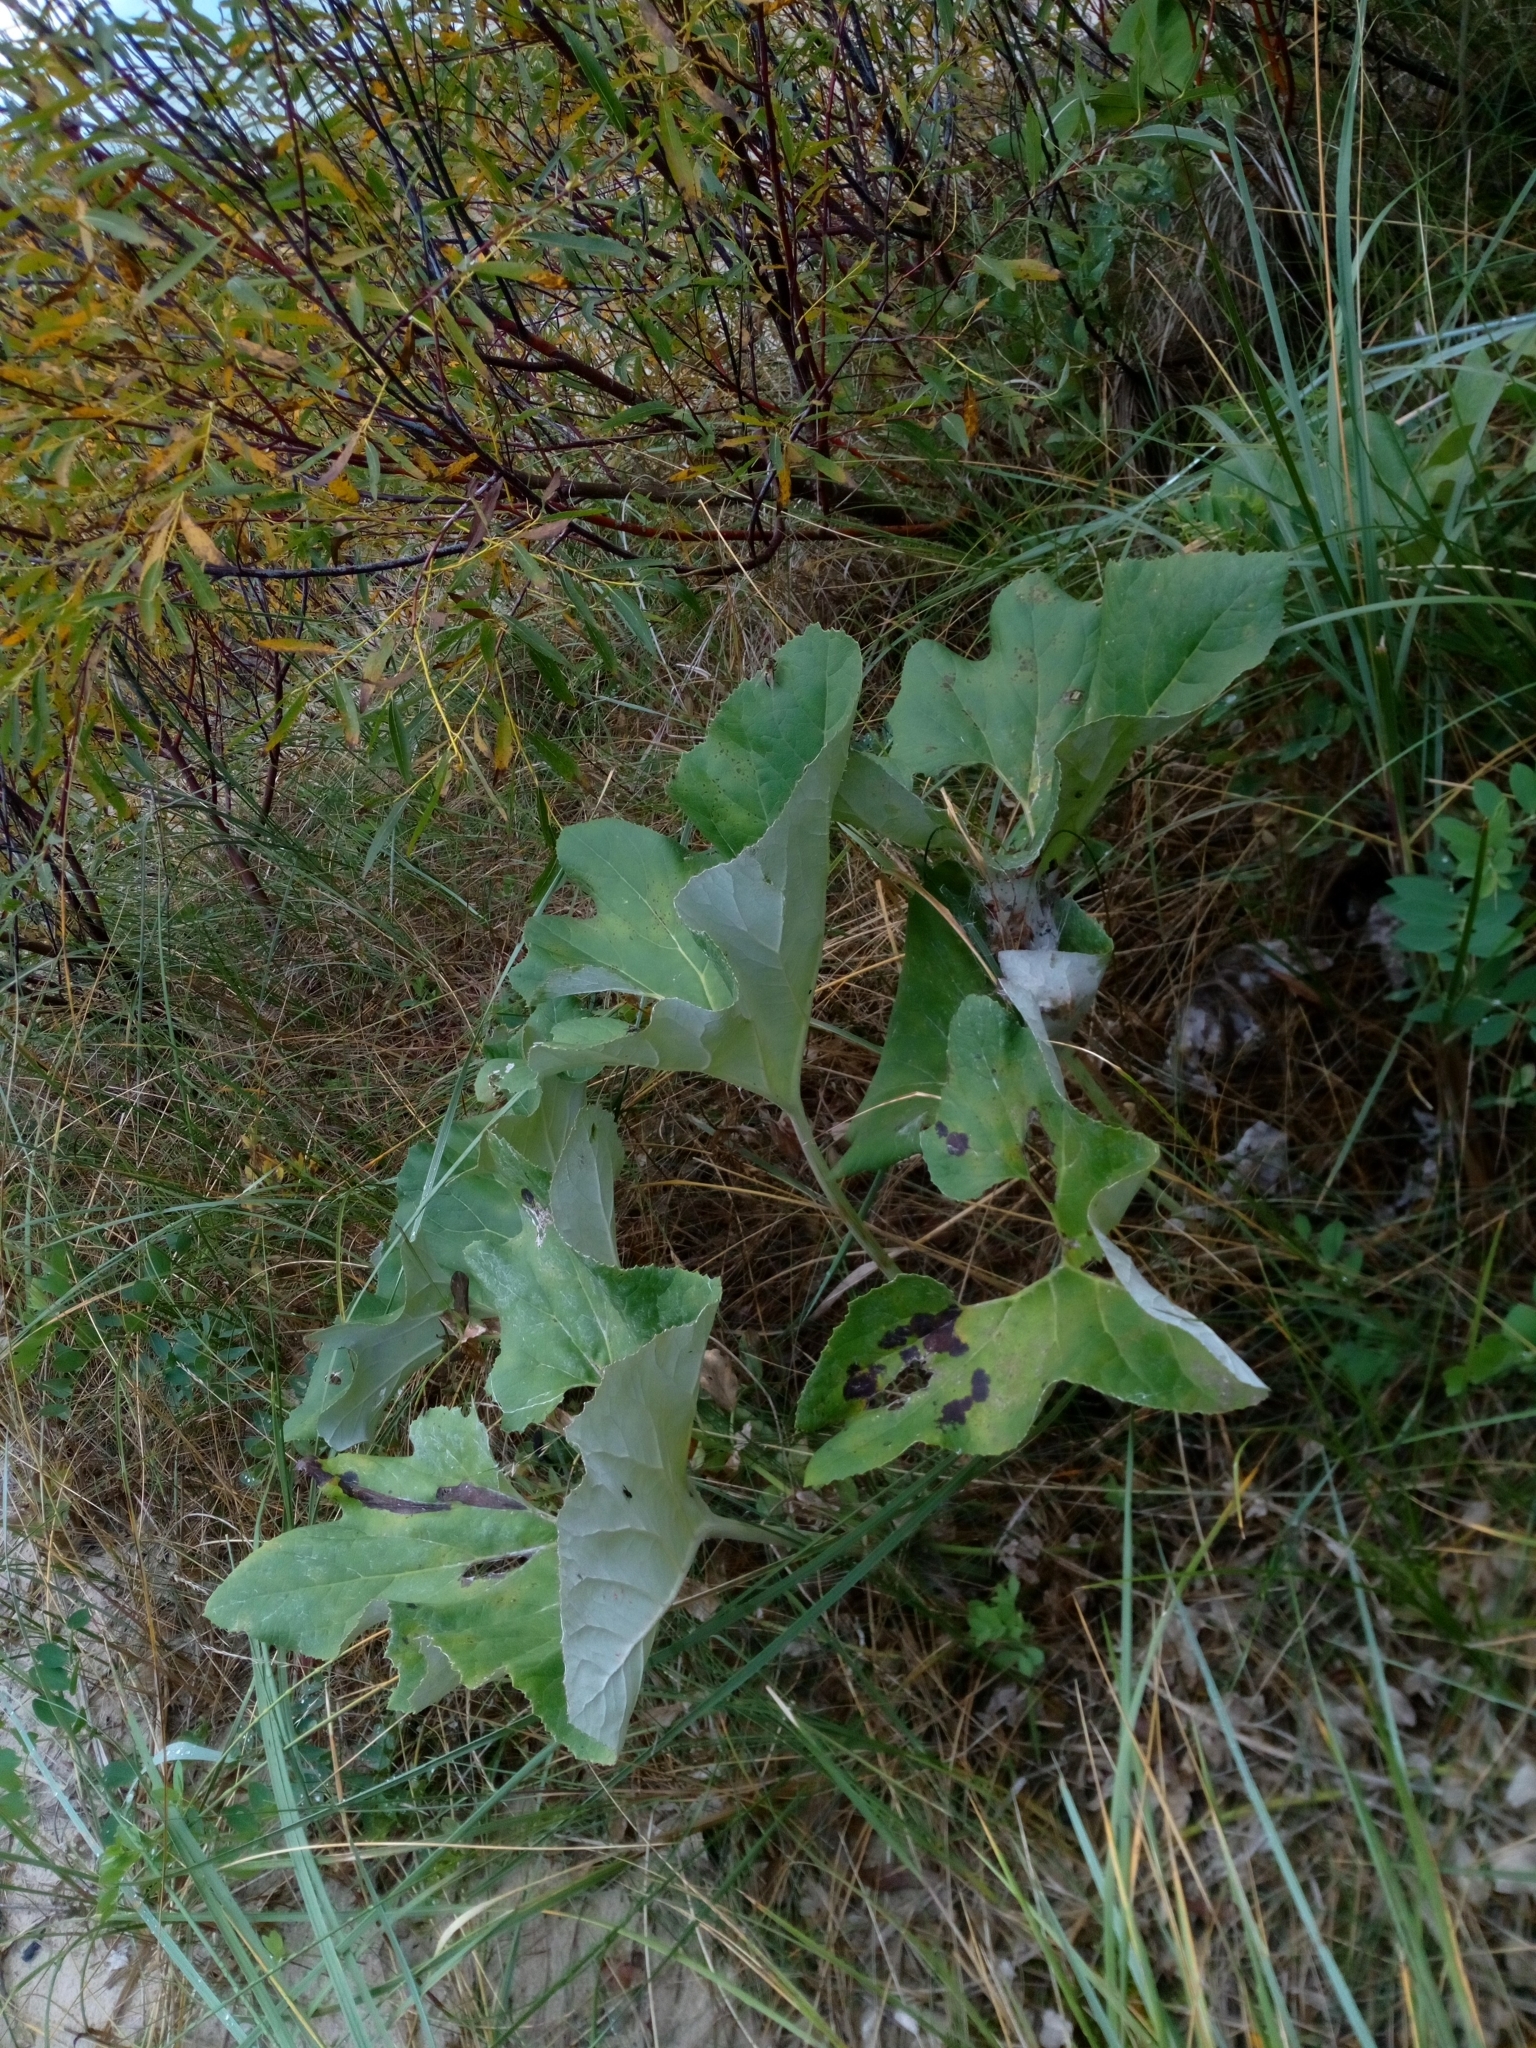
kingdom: Plantae
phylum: Tracheophyta
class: Magnoliopsida
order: Asterales
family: Asteraceae
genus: Petasites
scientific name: Petasites spurius
